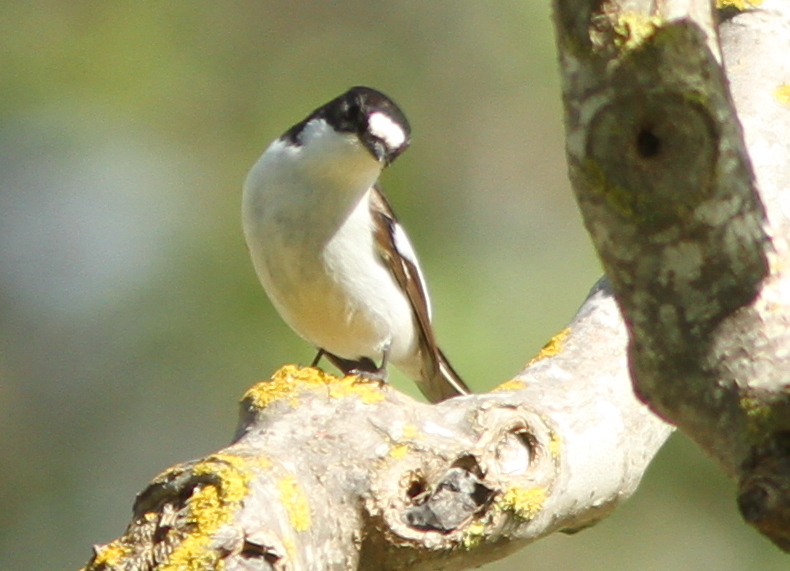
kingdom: Animalia
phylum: Chordata
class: Aves
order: Passeriformes
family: Muscicapidae
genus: Ficedula
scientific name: Ficedula hypoleuca
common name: European pied flycatcher
